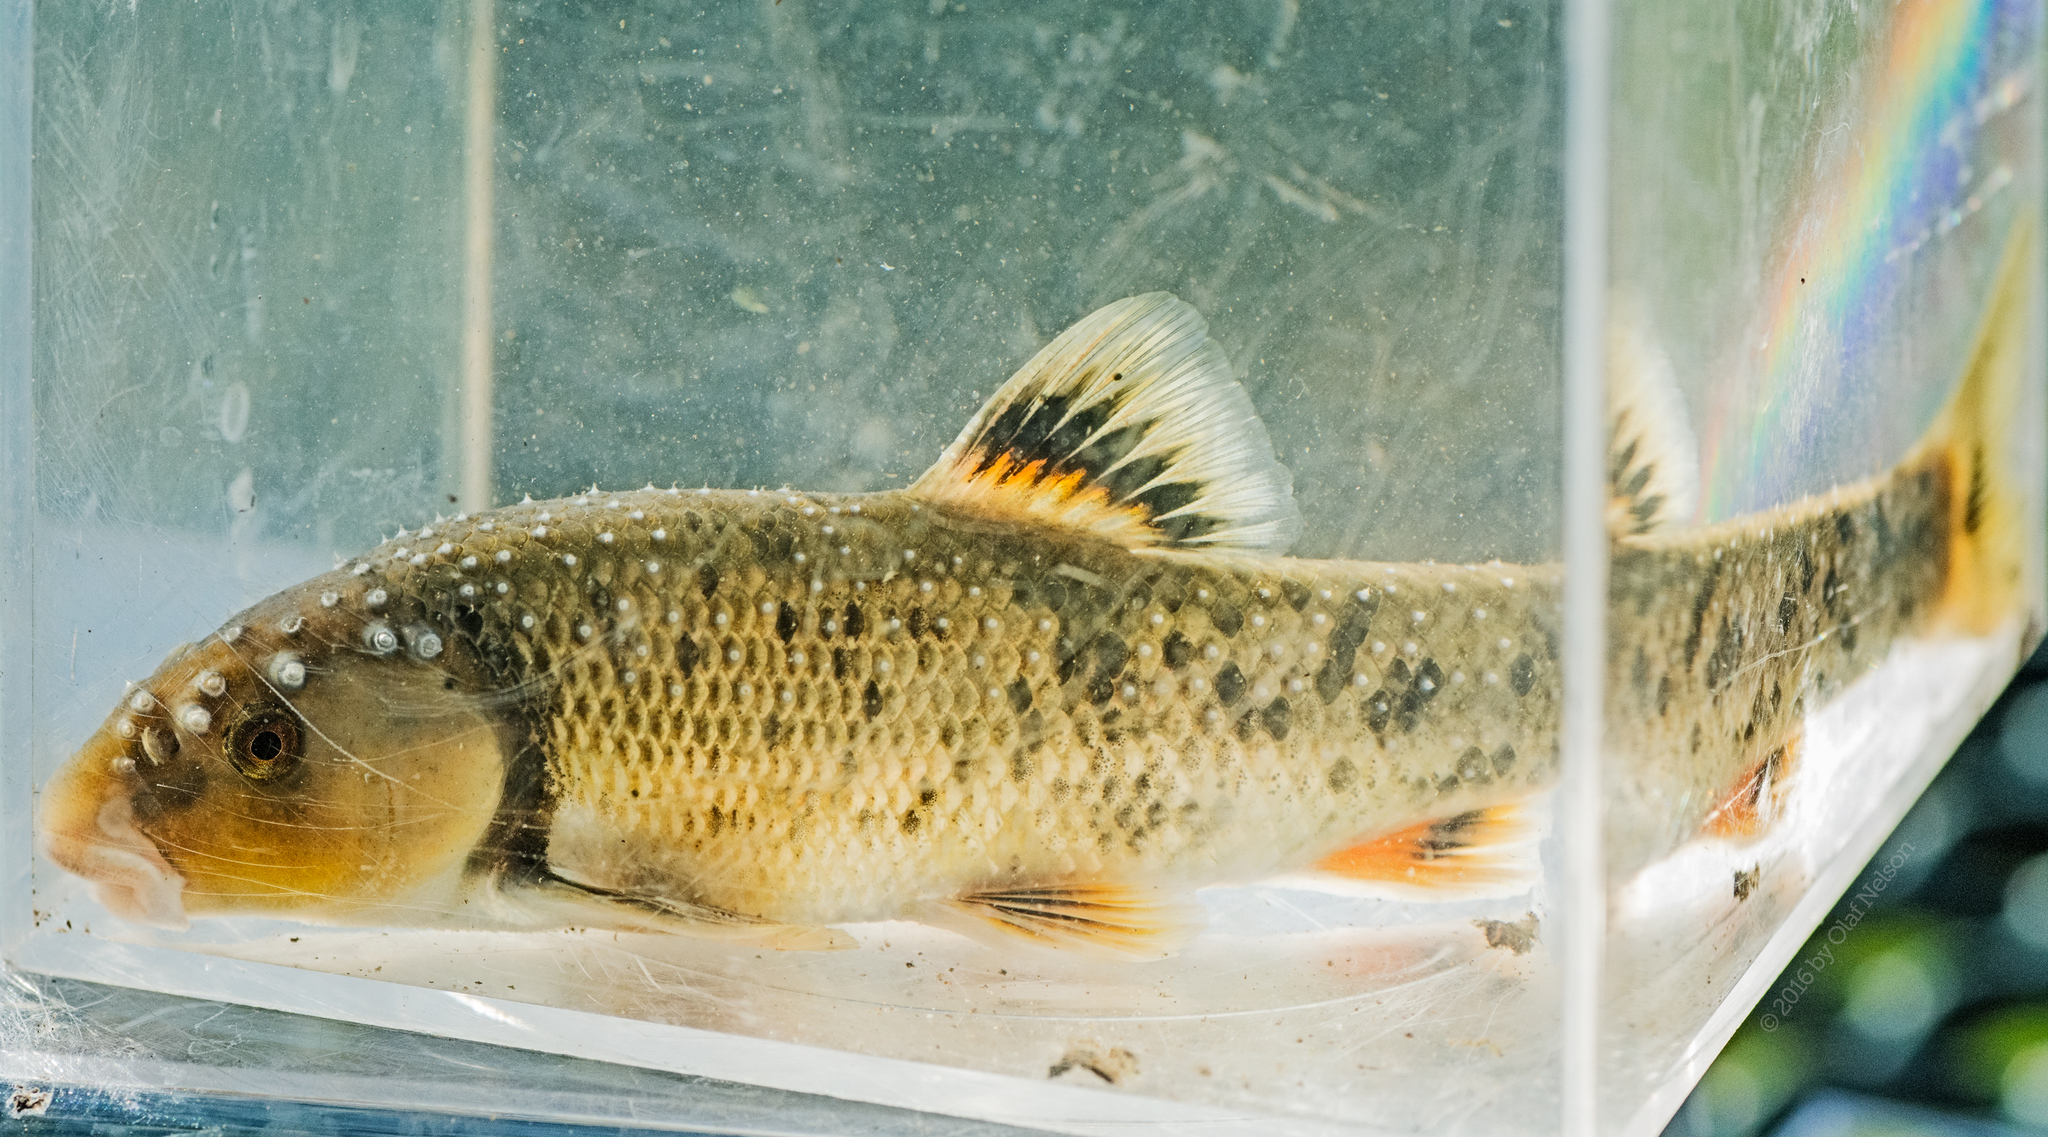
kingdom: Animalia
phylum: Chordata
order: Cypriniformes
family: Cyprinidae
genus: Campostoma
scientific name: Campostoma anomalum
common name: Central stoneroller
